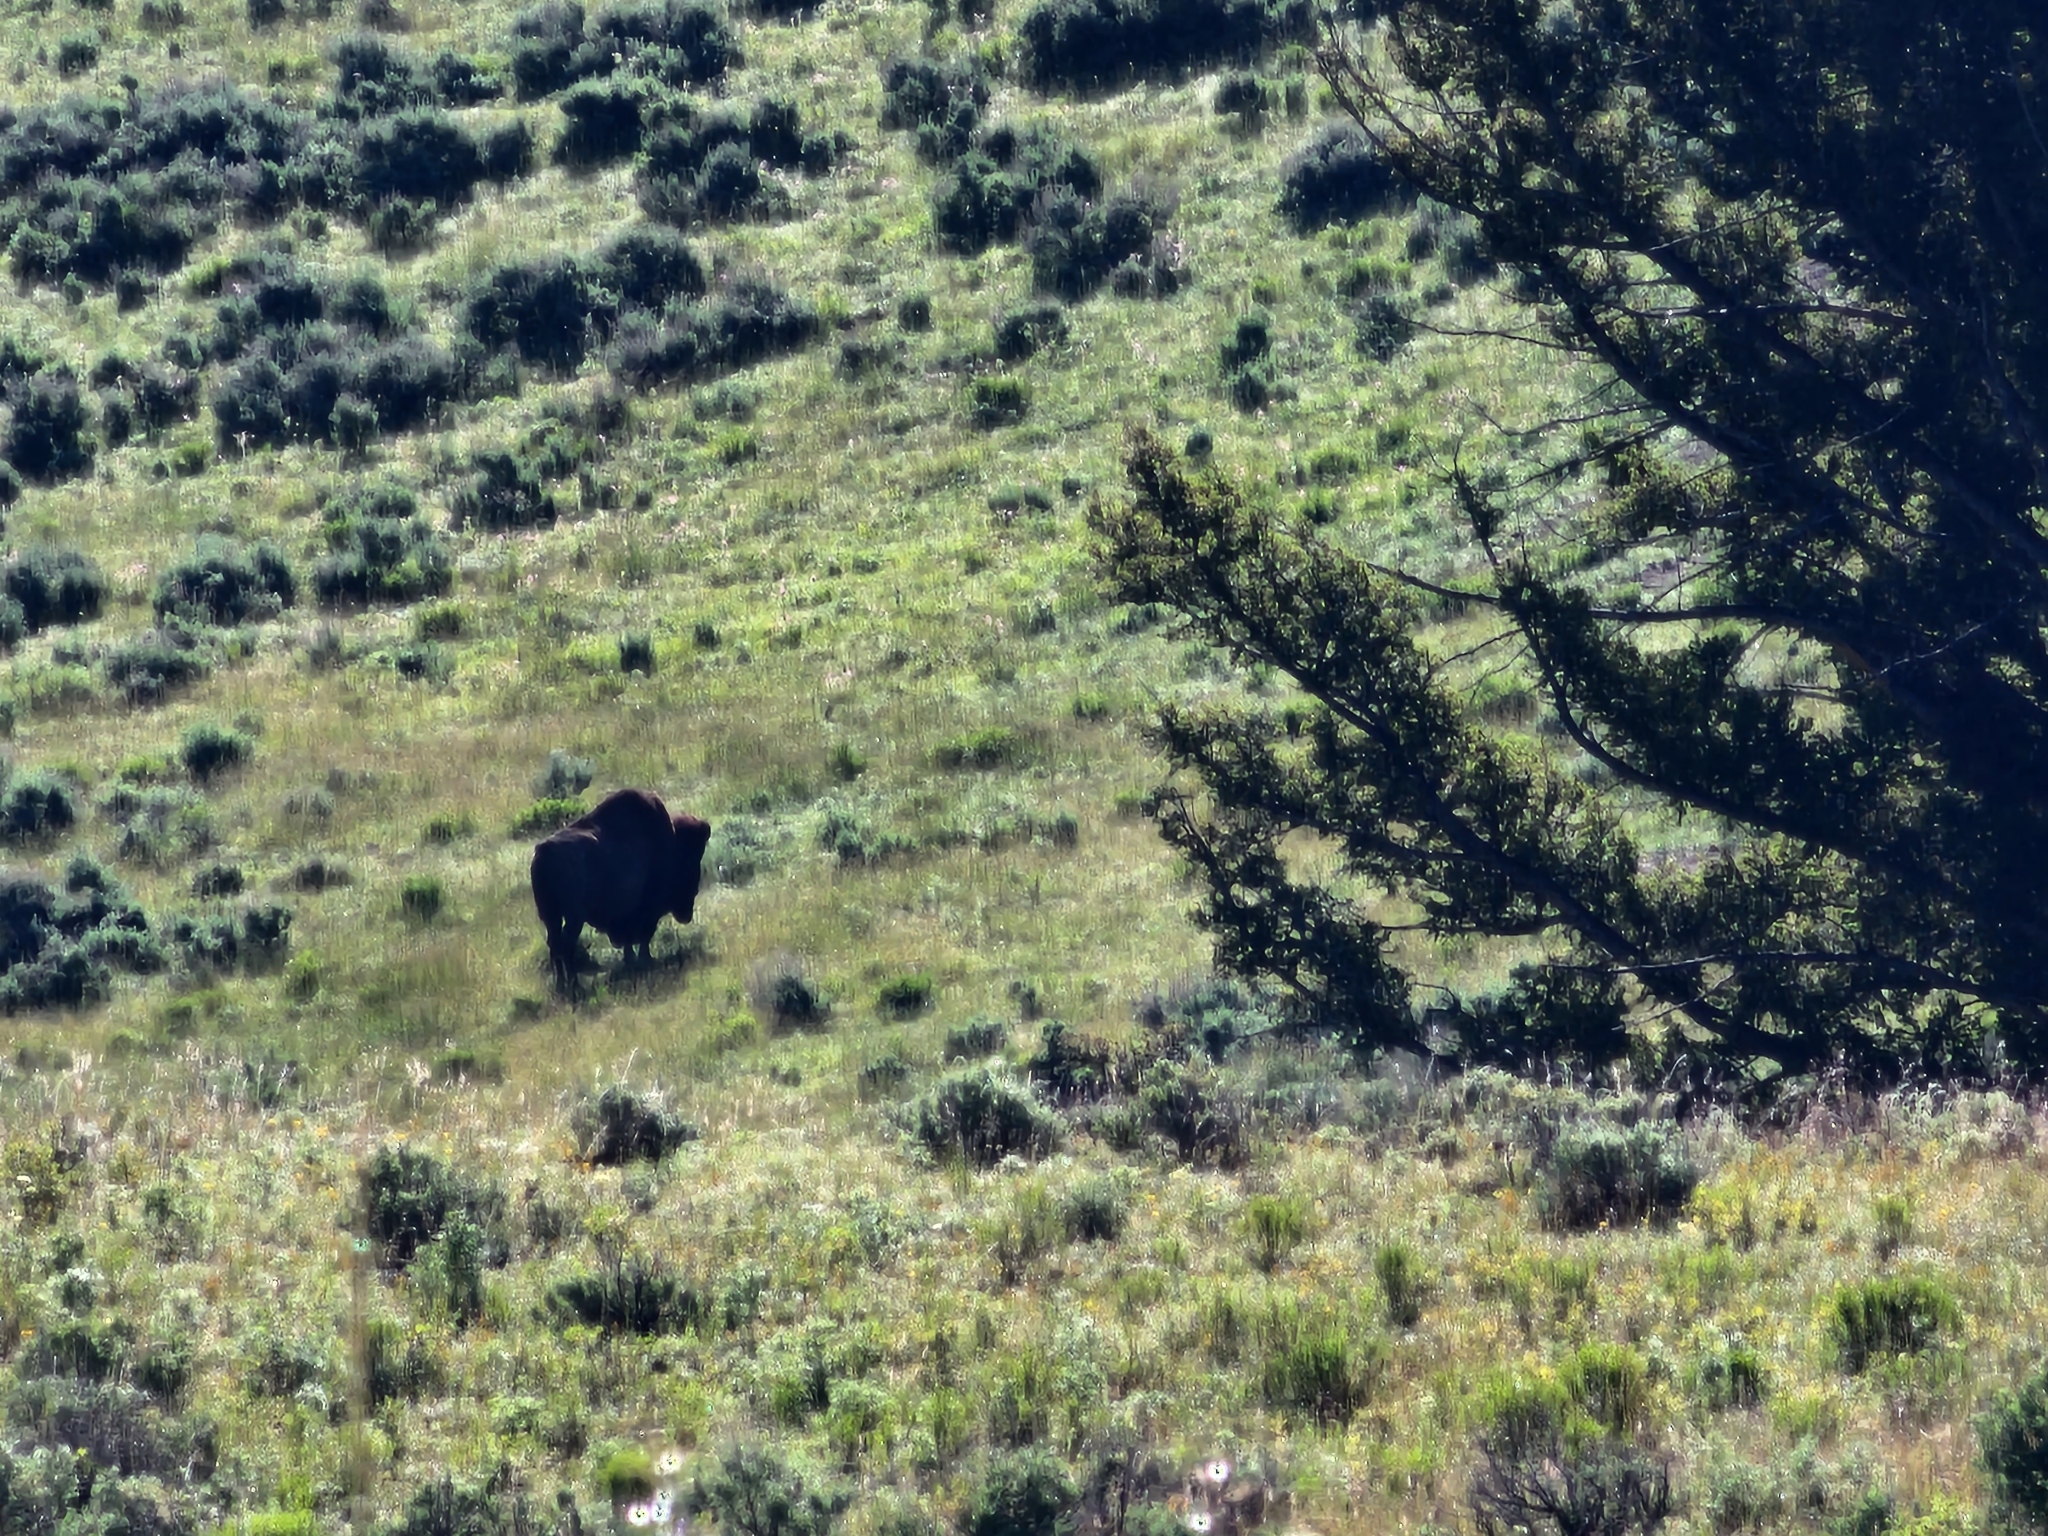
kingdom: Animalia
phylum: Chordata
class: Mammalia
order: Artiodactyla
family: Bovidae
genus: Bison
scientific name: Bison bison
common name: American bison
